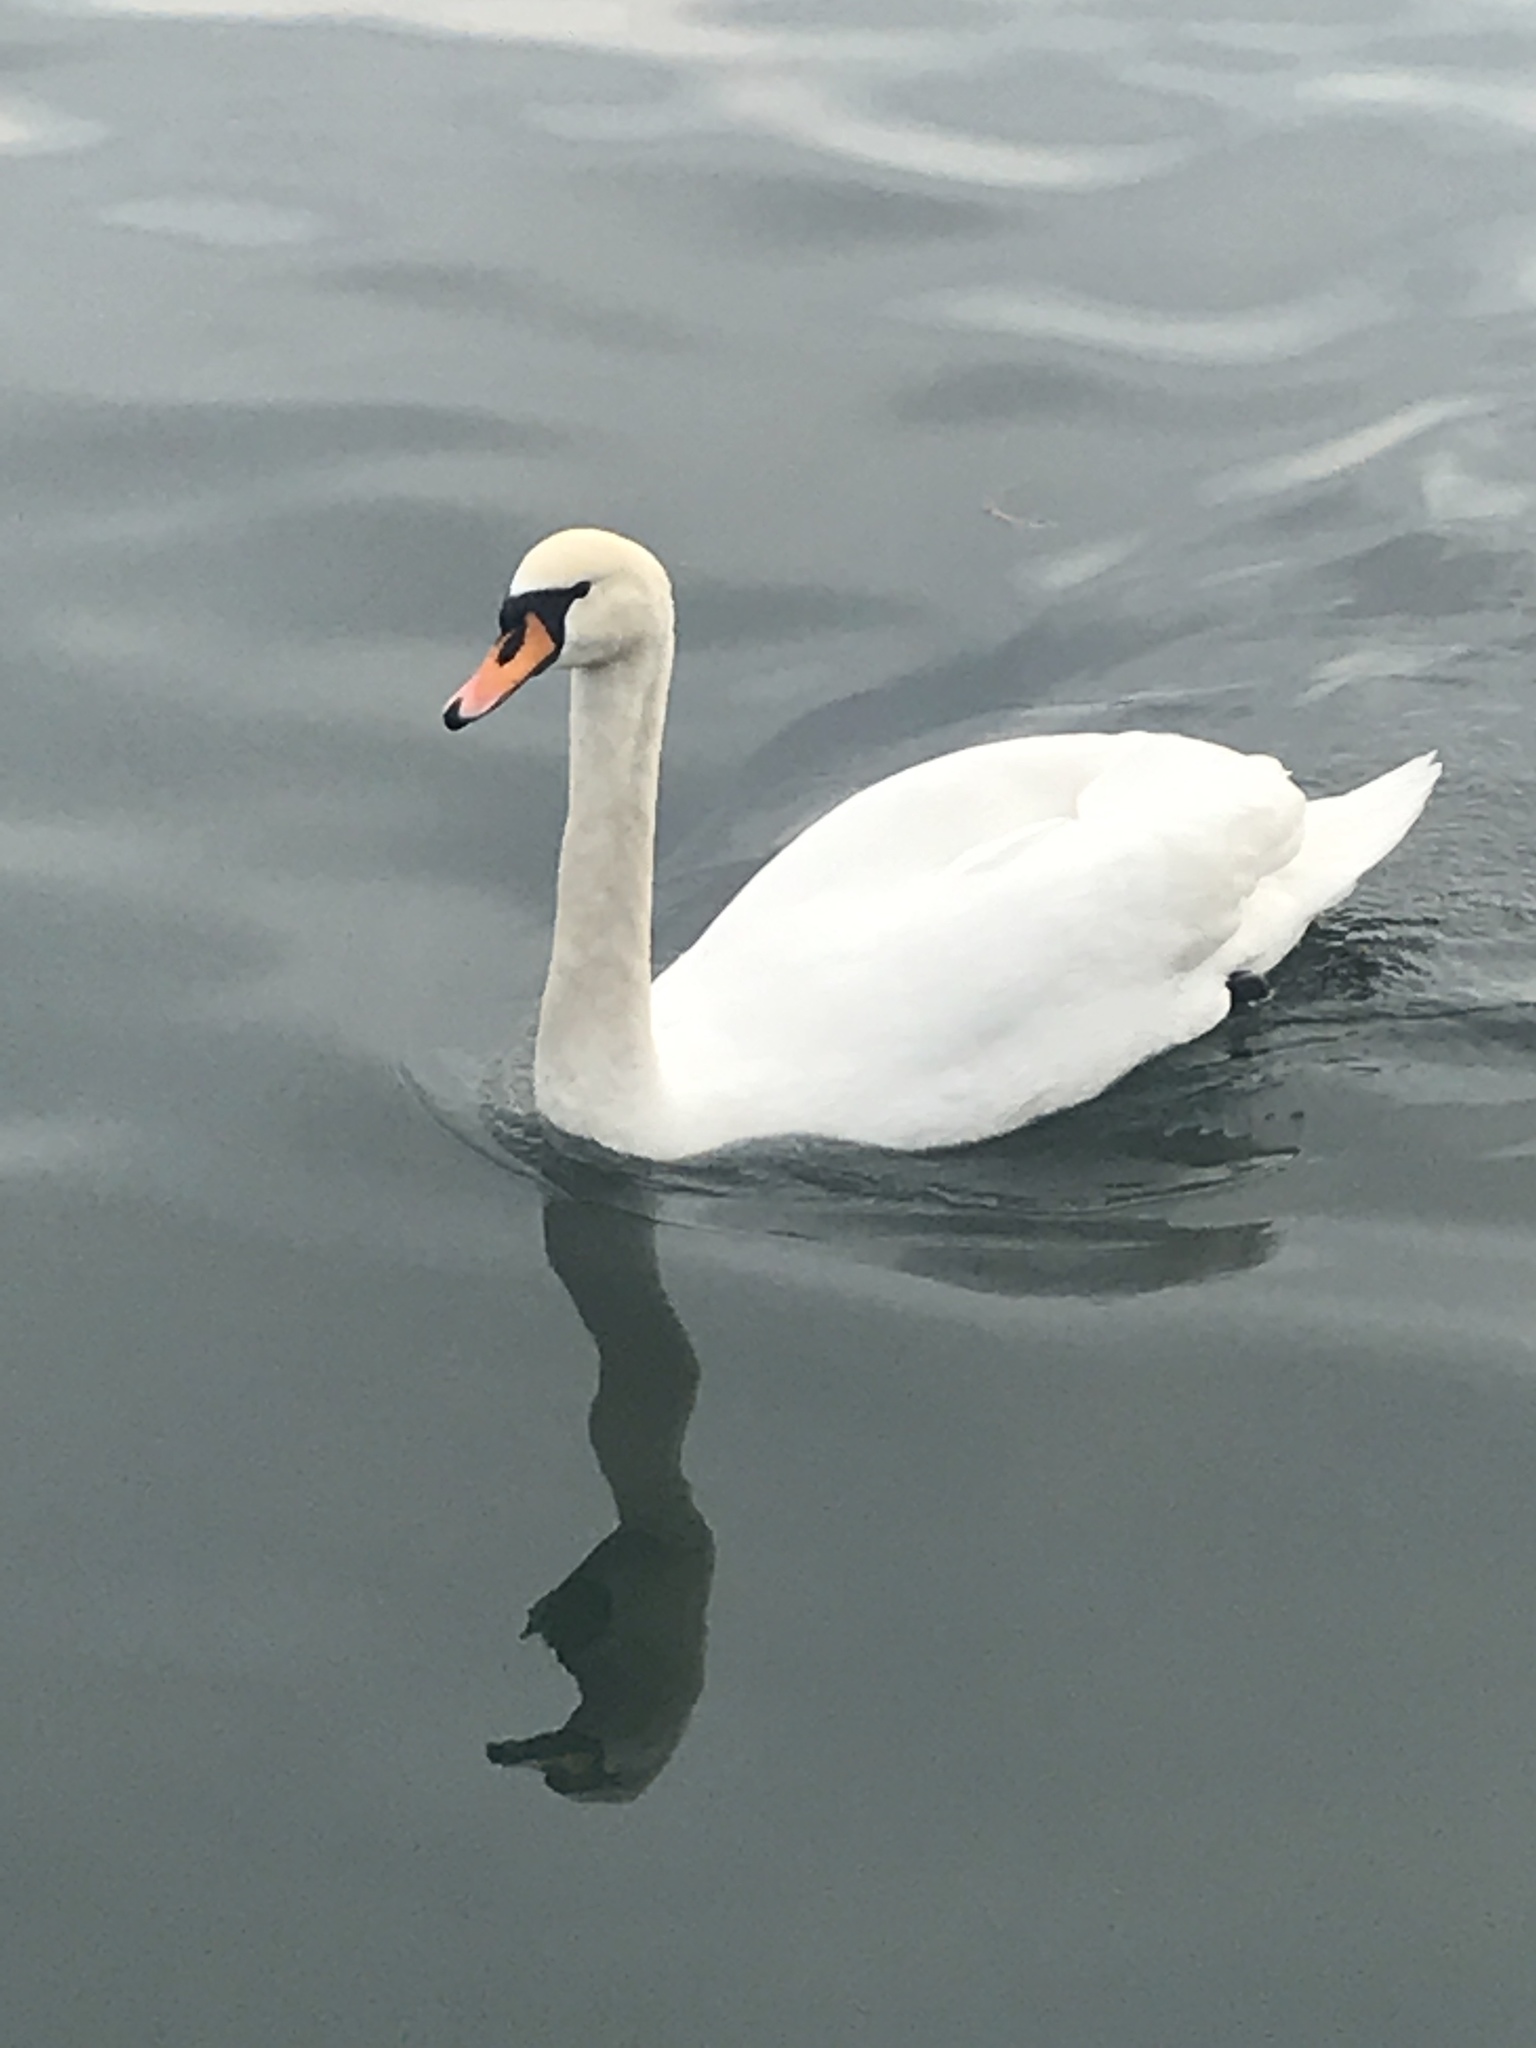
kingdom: Animalia
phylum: Chordata
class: Aves
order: Anseriformes
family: Anatidae
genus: Cygnus
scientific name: Cygnus olor
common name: Mute swan
